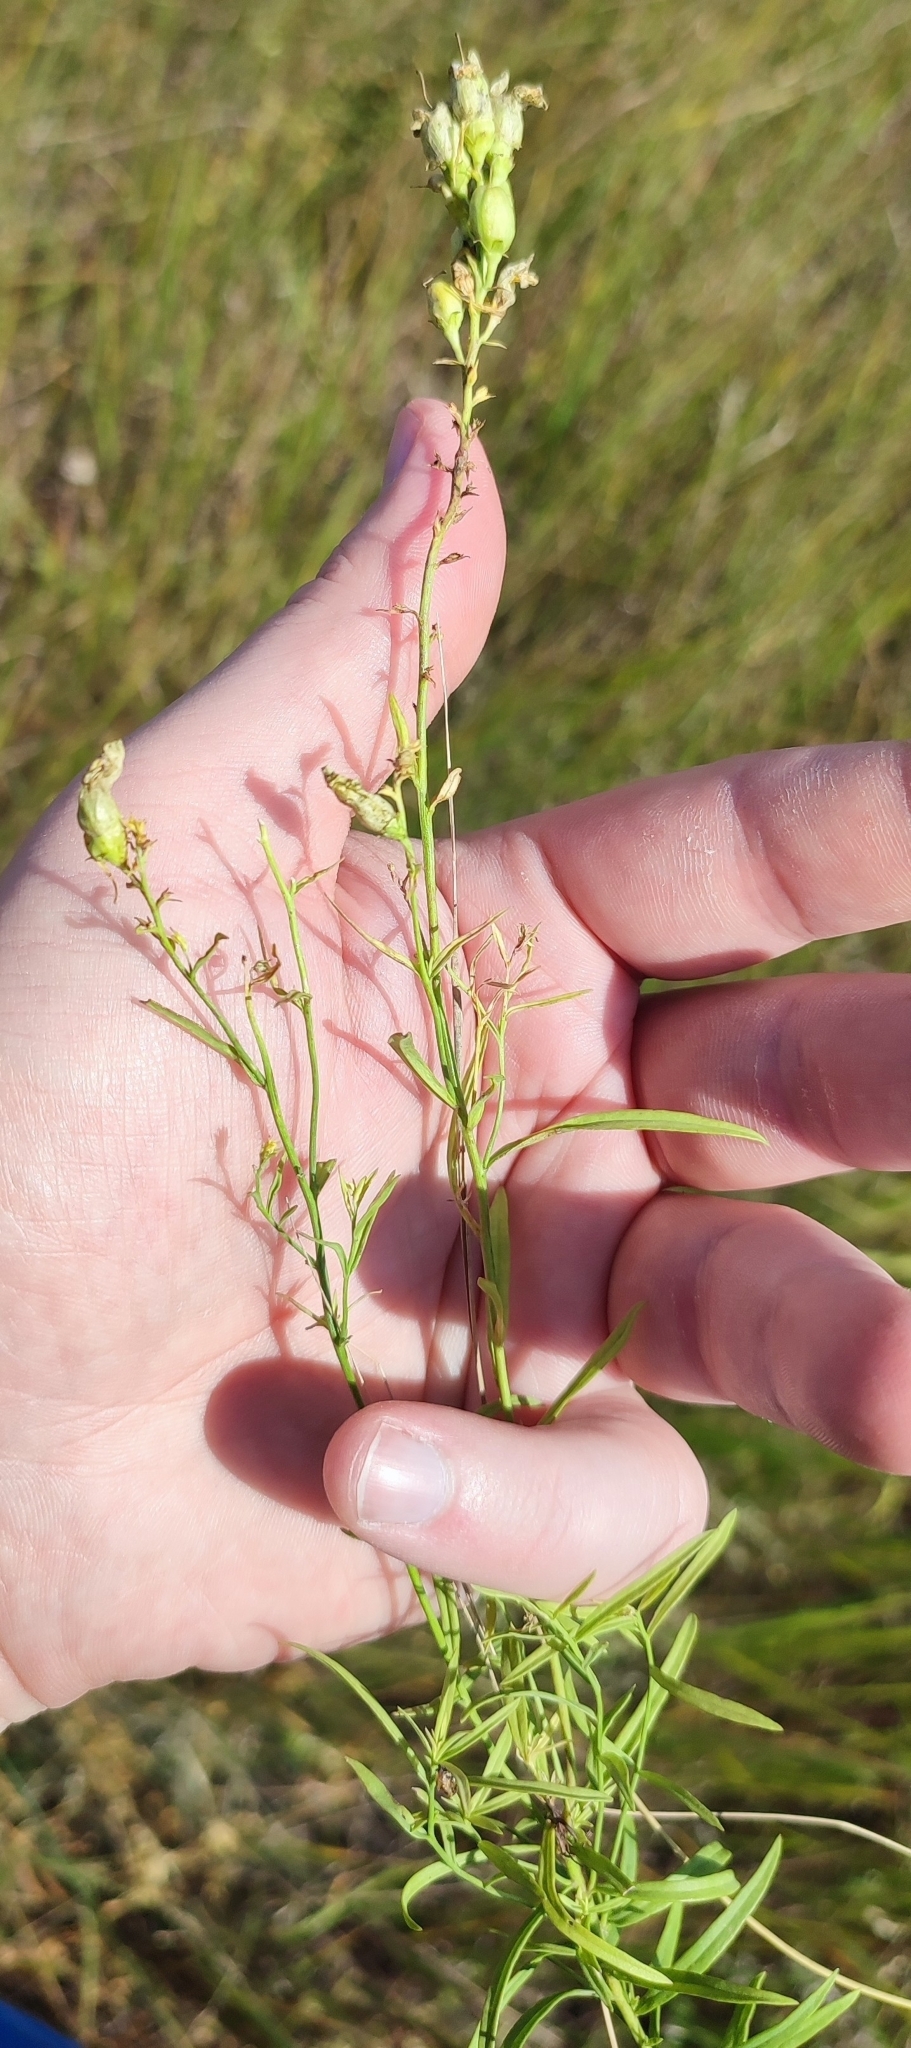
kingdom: Plantae
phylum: Tracheophyta
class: Magnoliopsida
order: Lamiales
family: Plantaginaceae
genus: Linaria
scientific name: Linaria vulgaris
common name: Butter and eggs
